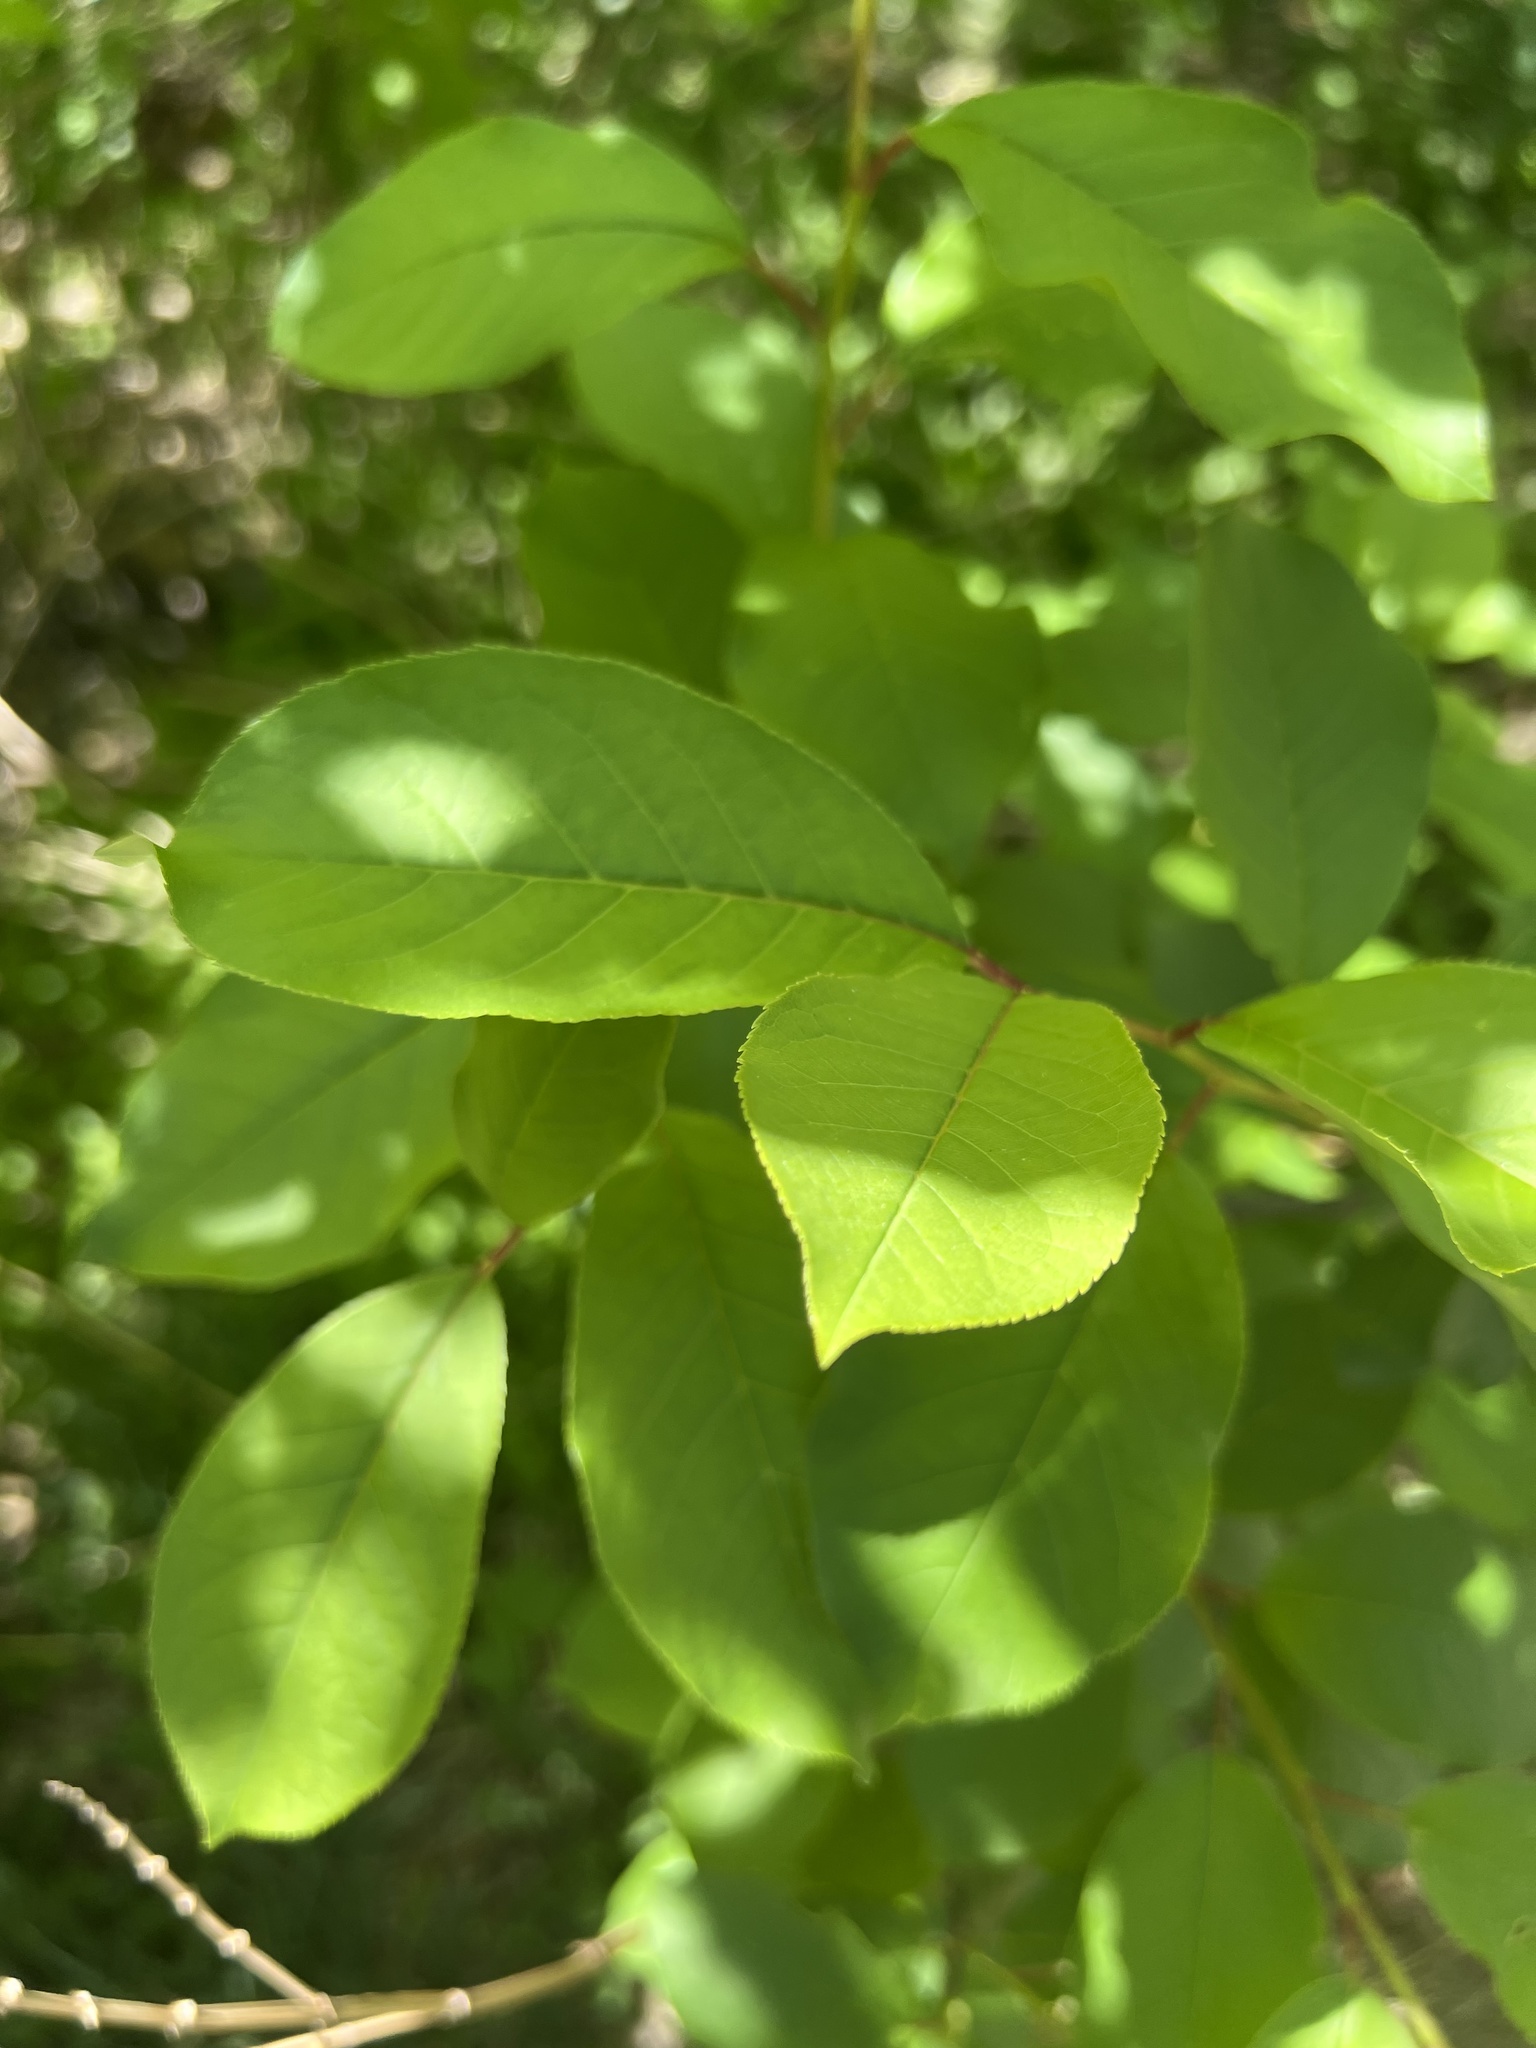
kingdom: Plantae
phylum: Tracheophyta
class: Magnoliopsida
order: Rosales
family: Rosaceae
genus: Prunus
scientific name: Prunus
